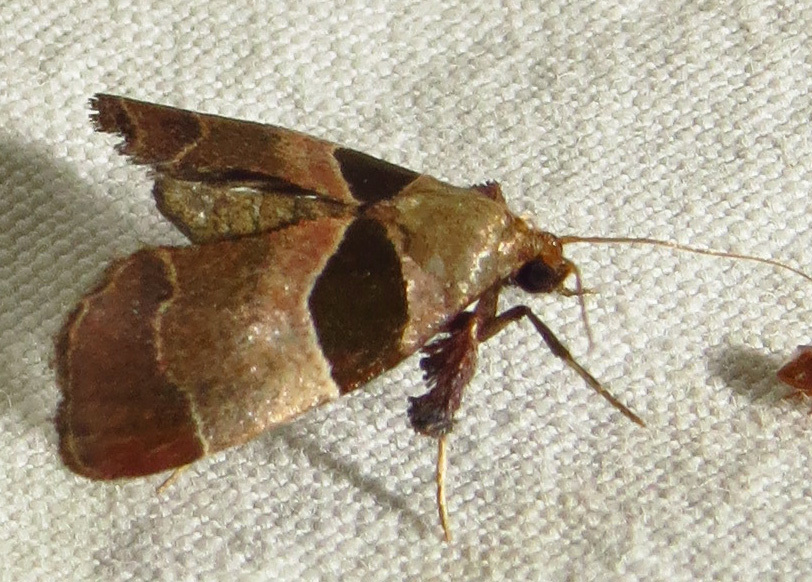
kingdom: Animalia
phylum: Arthropoda
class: Insecta
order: Lepidoptera
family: Pyralidae
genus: Tosale
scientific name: Tosale oviplagalis
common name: Dimorphic tosale moth
